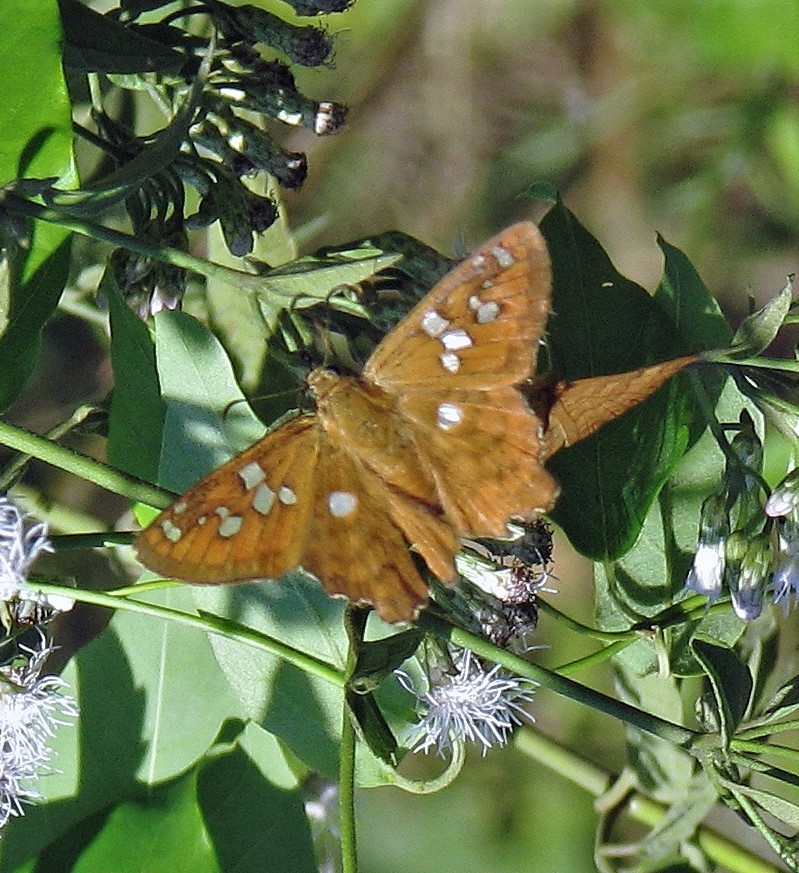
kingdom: Animalia
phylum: Arthropoda
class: Insecta
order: Lepidoptera
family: Hesperiidae
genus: Myscelus
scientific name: Myscelus amystis
